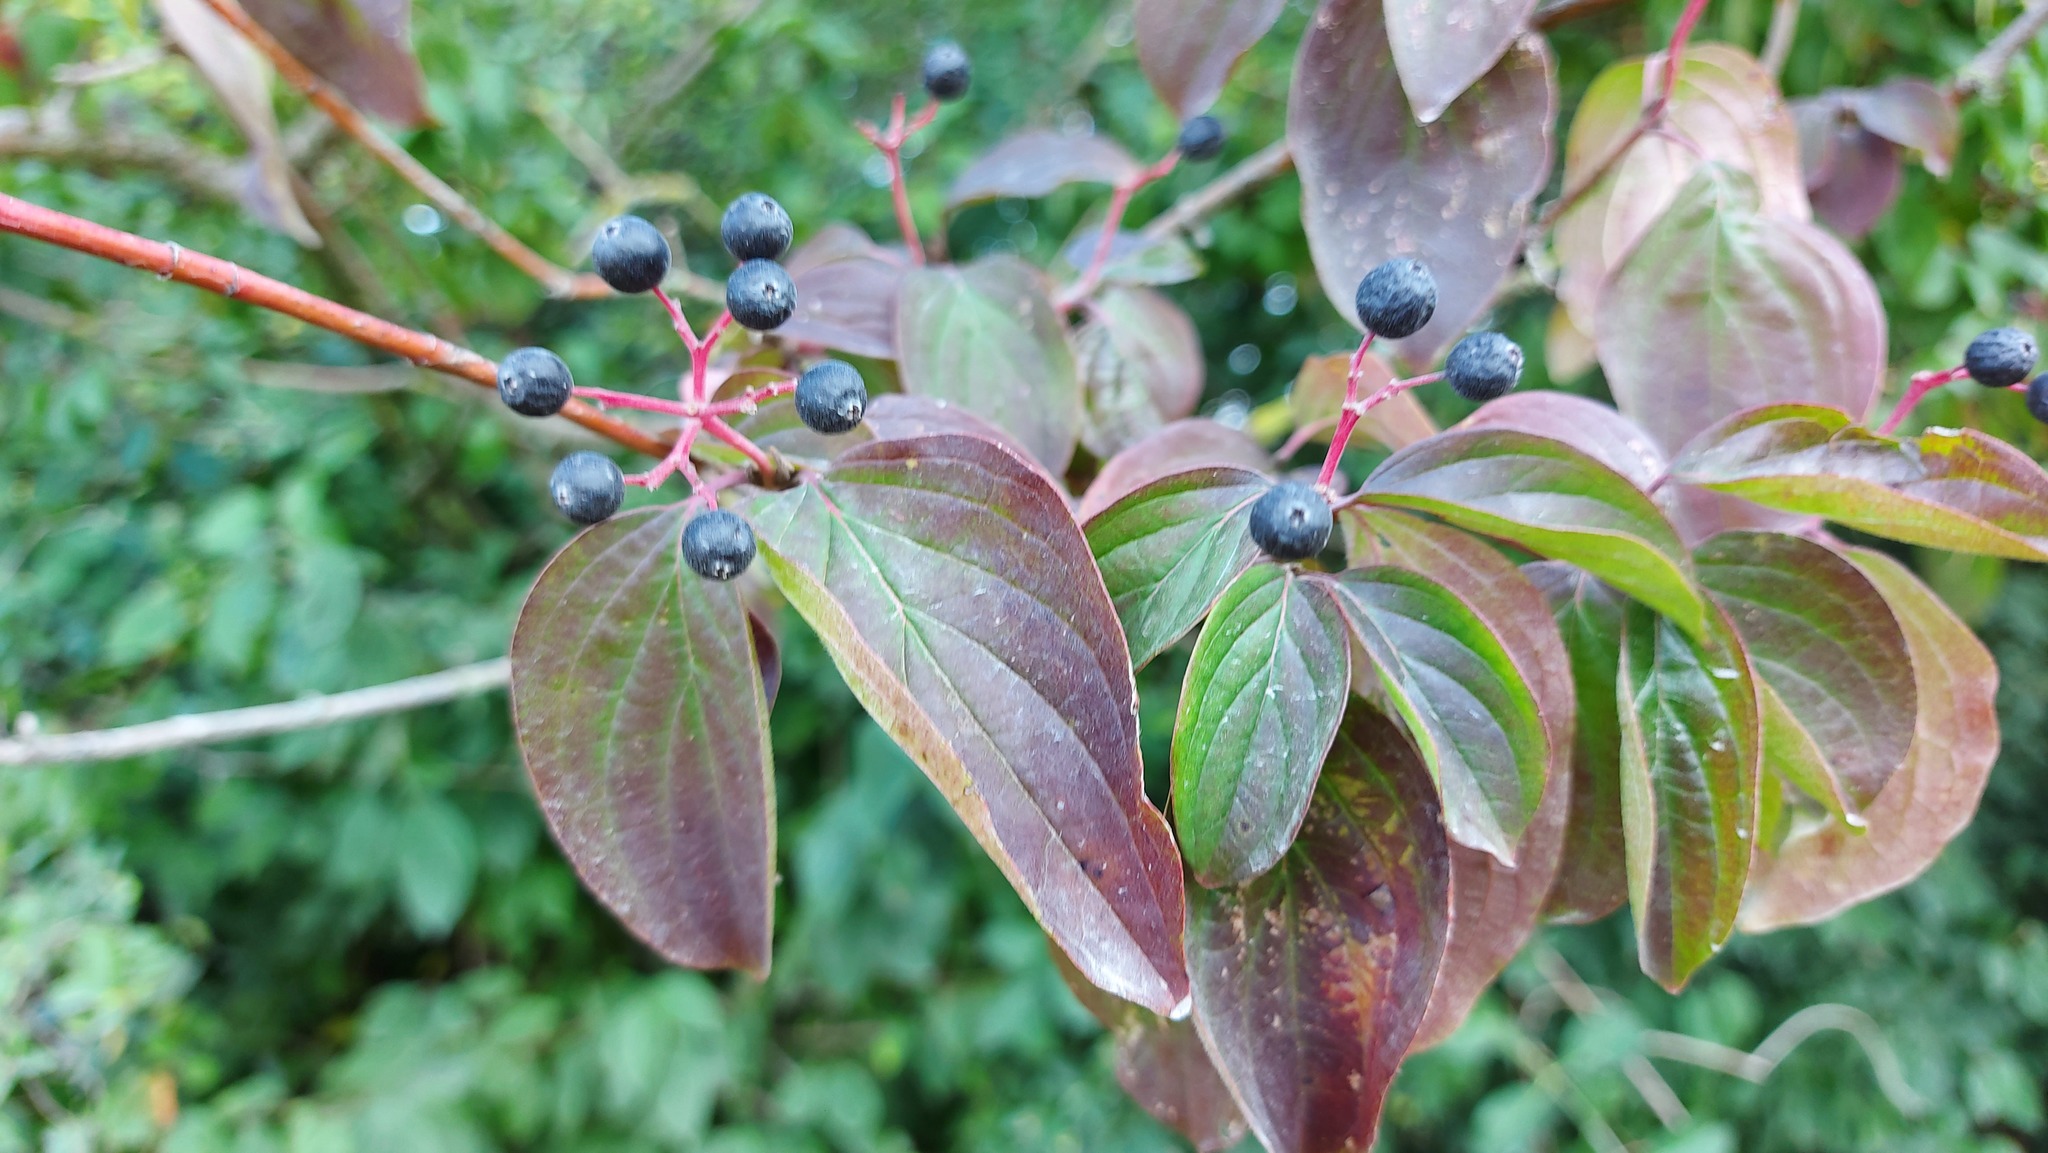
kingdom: Plantae
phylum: Tracheophyta
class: Magnoliopsida
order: Cornales
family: Cornaceae
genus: Cornus
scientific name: Cornus sanguinea
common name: Dogwood
